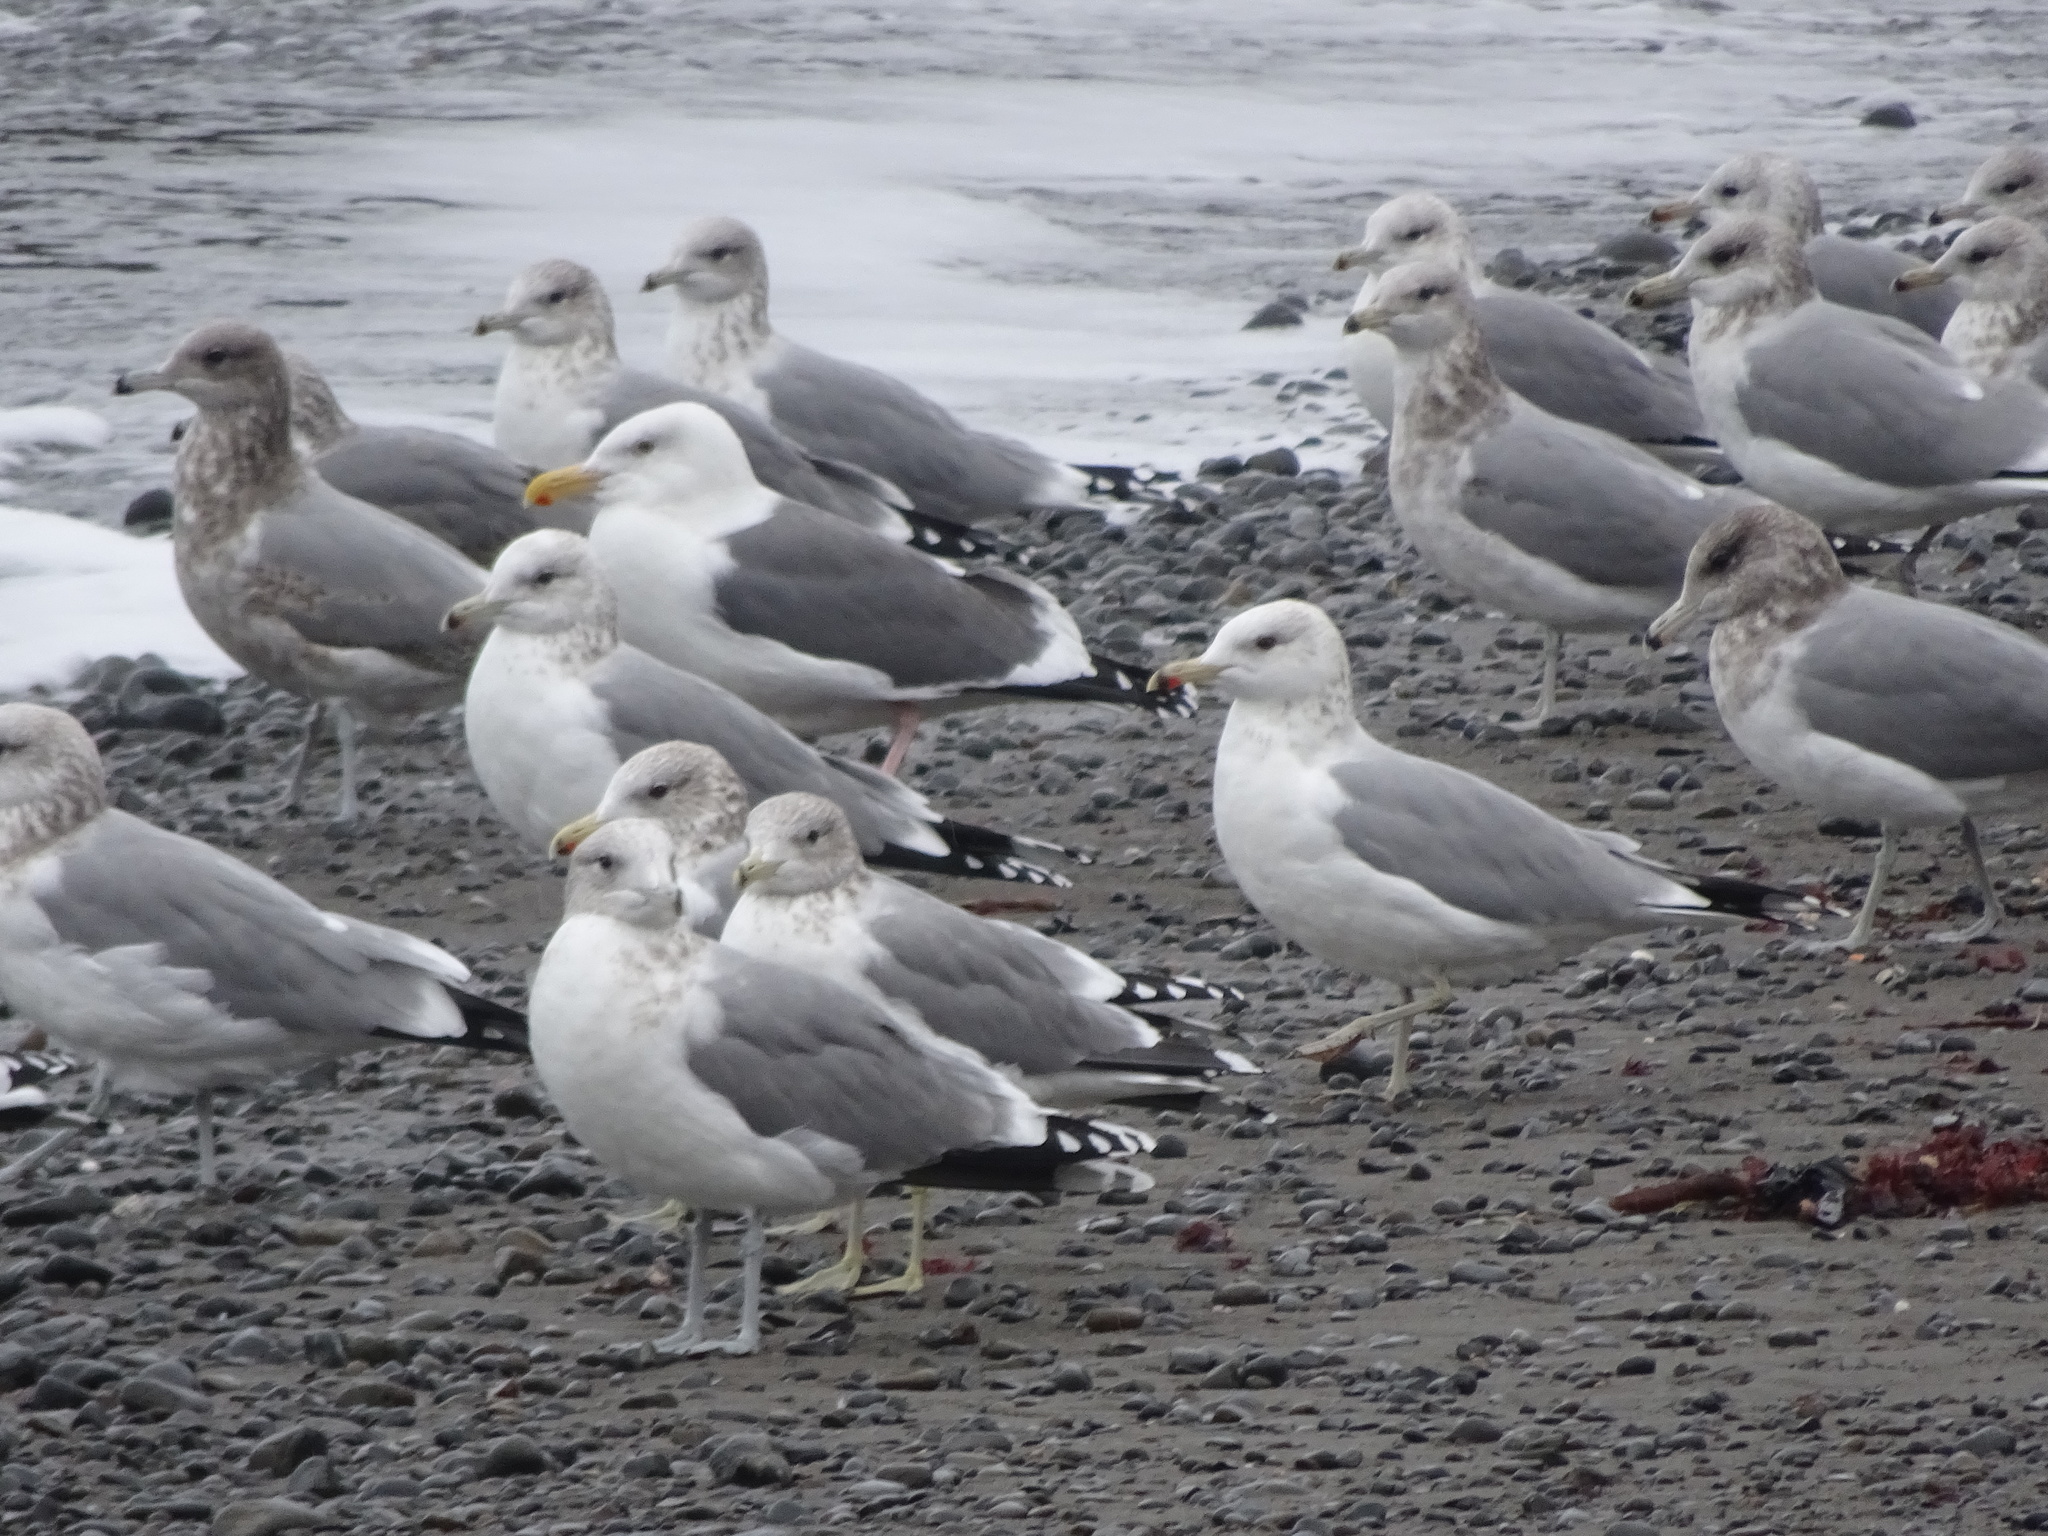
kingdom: Animalia
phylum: Chordata
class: Aves
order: Charadriiformes
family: Laridae
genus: Larus
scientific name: Larus californicus
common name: California gull
